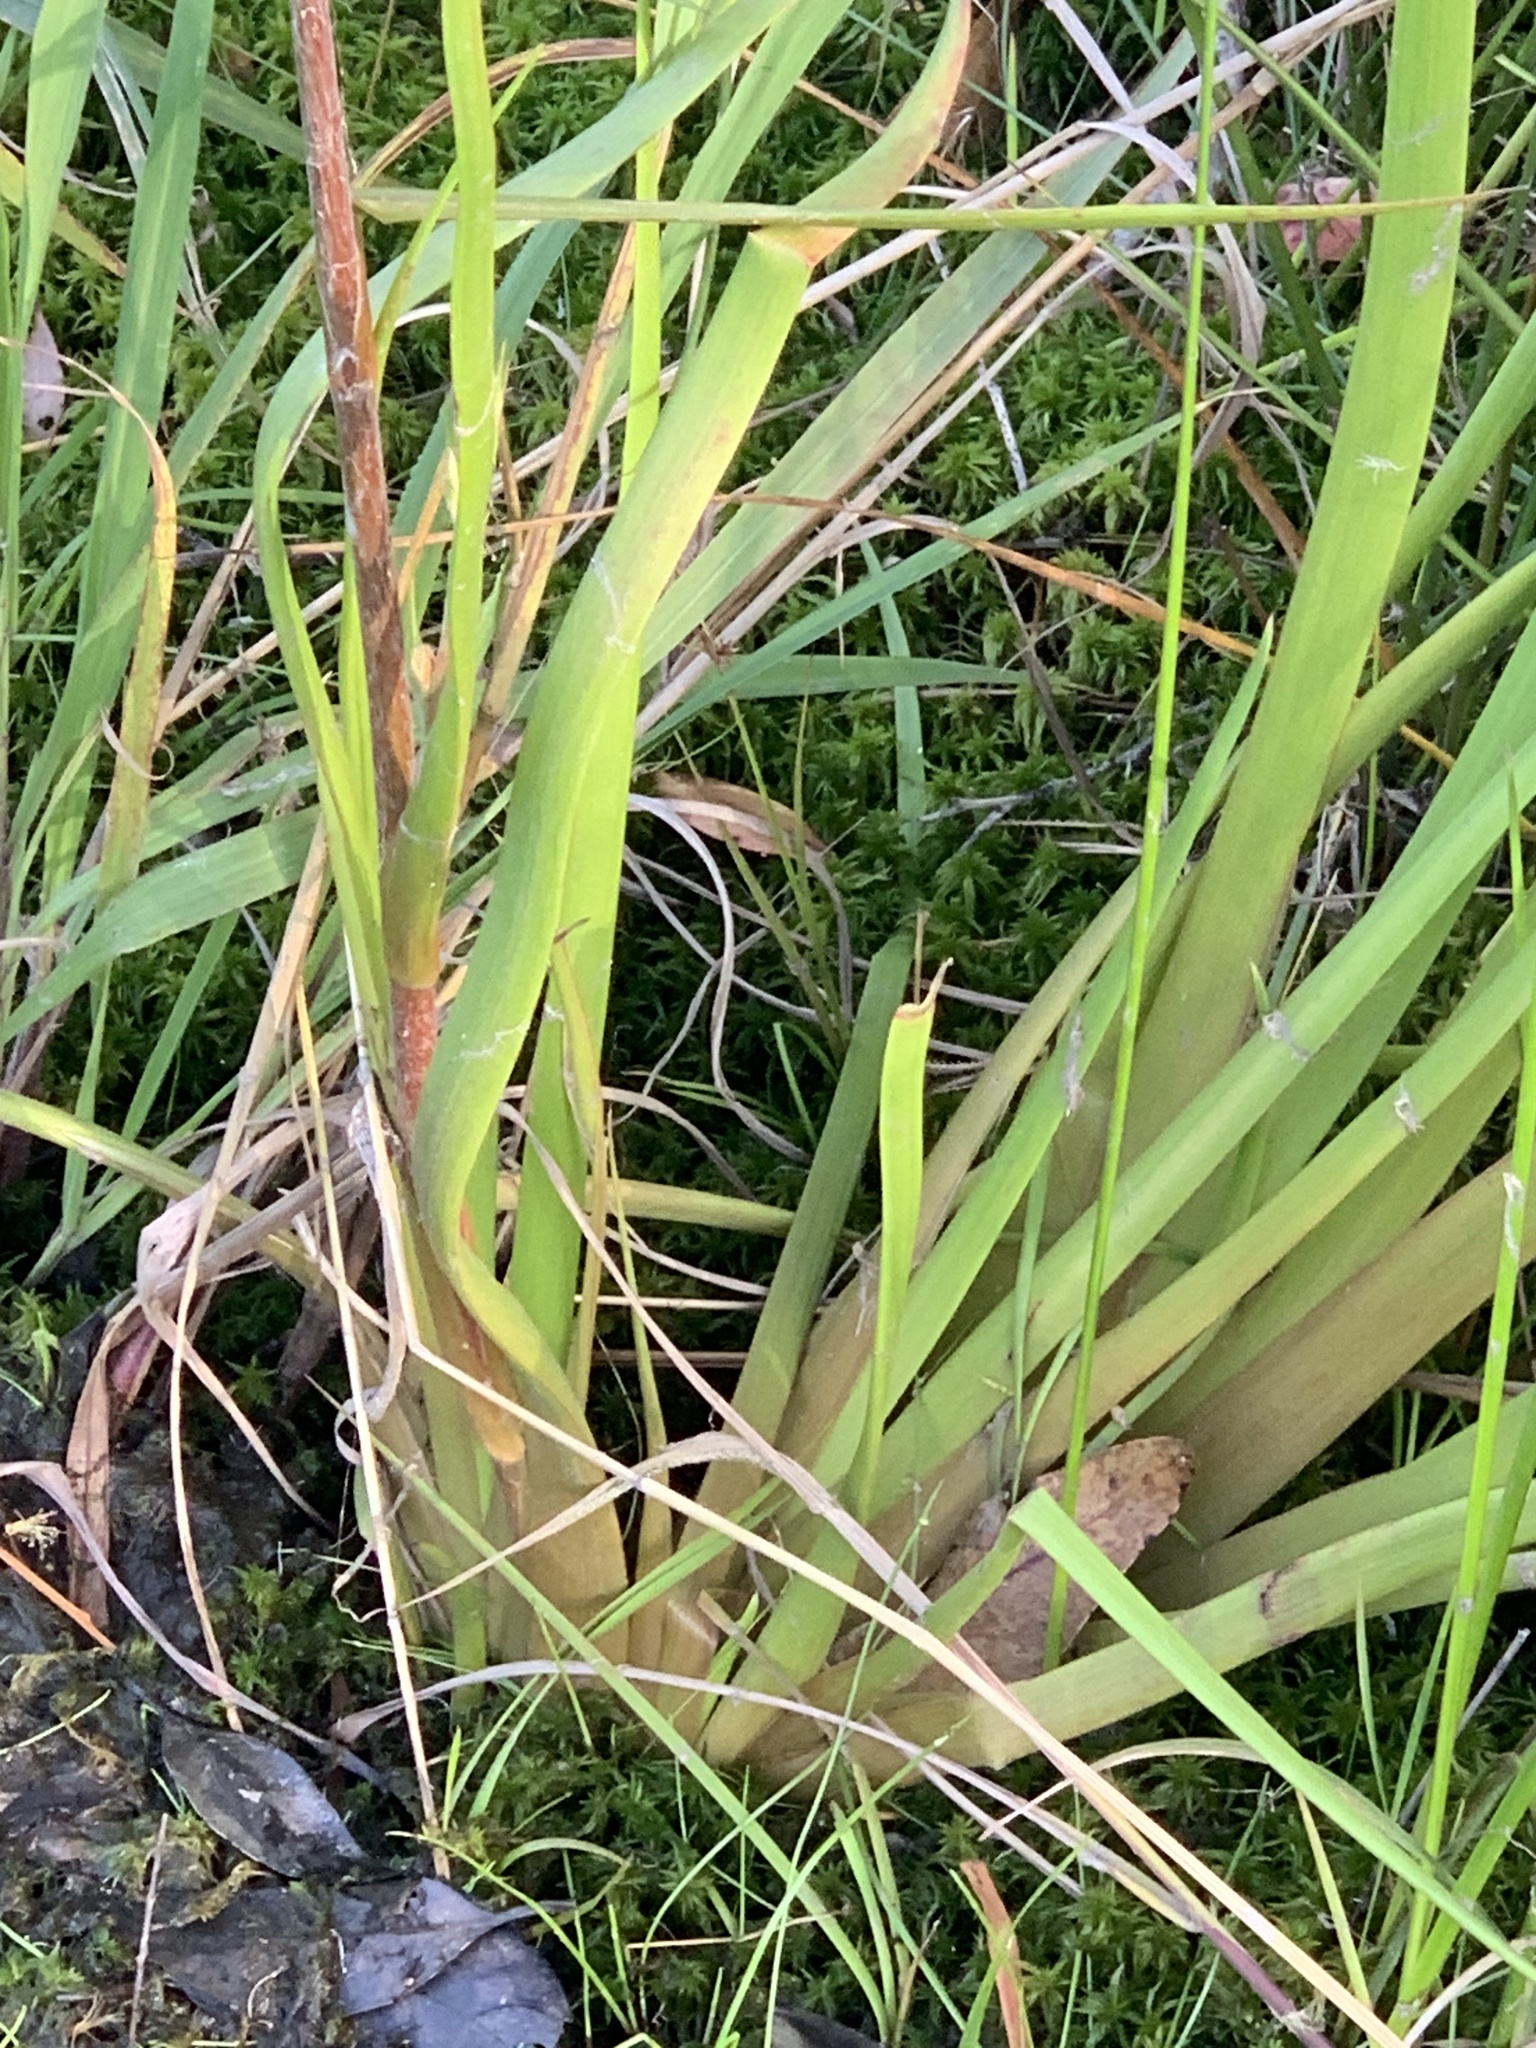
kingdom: Plantae
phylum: Tracheophyta
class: Liliopsida
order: Commelinales
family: Philydraceae
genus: Philydrum
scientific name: Philydrum lanuginosum
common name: Woolly frog's mouth
